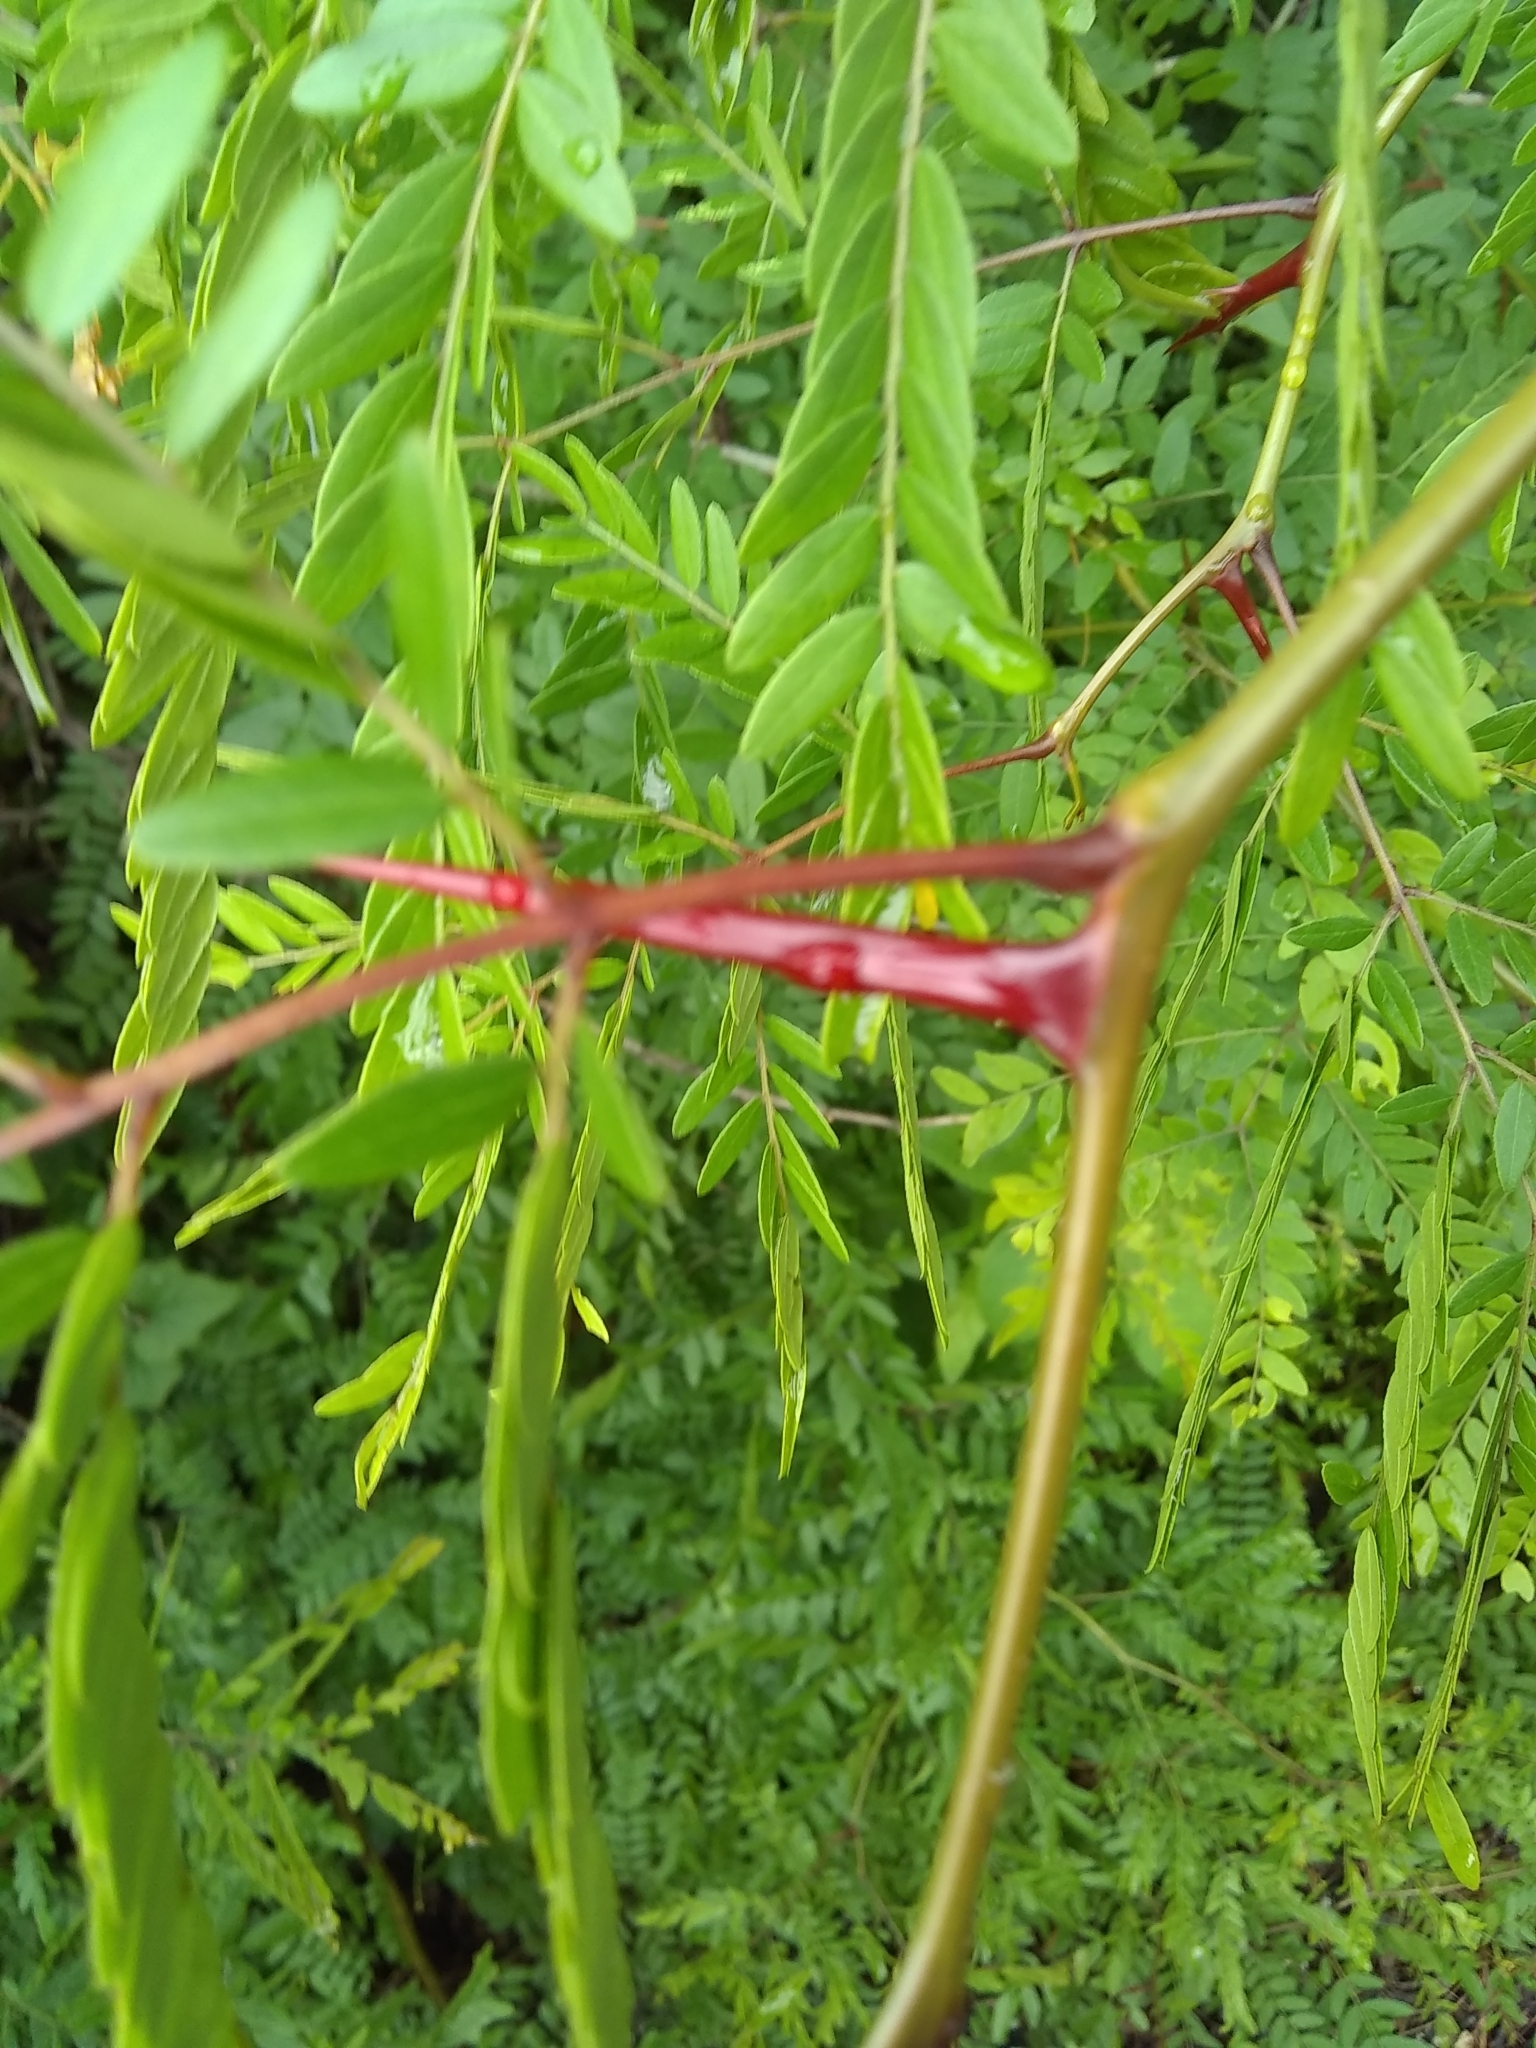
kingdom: Plantae
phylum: Tracheophyta
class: Magnoliopsida
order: Fabales
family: Fabaceae
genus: Gleditsia
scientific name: Gleditsia triacanthos
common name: Common honeylocust
